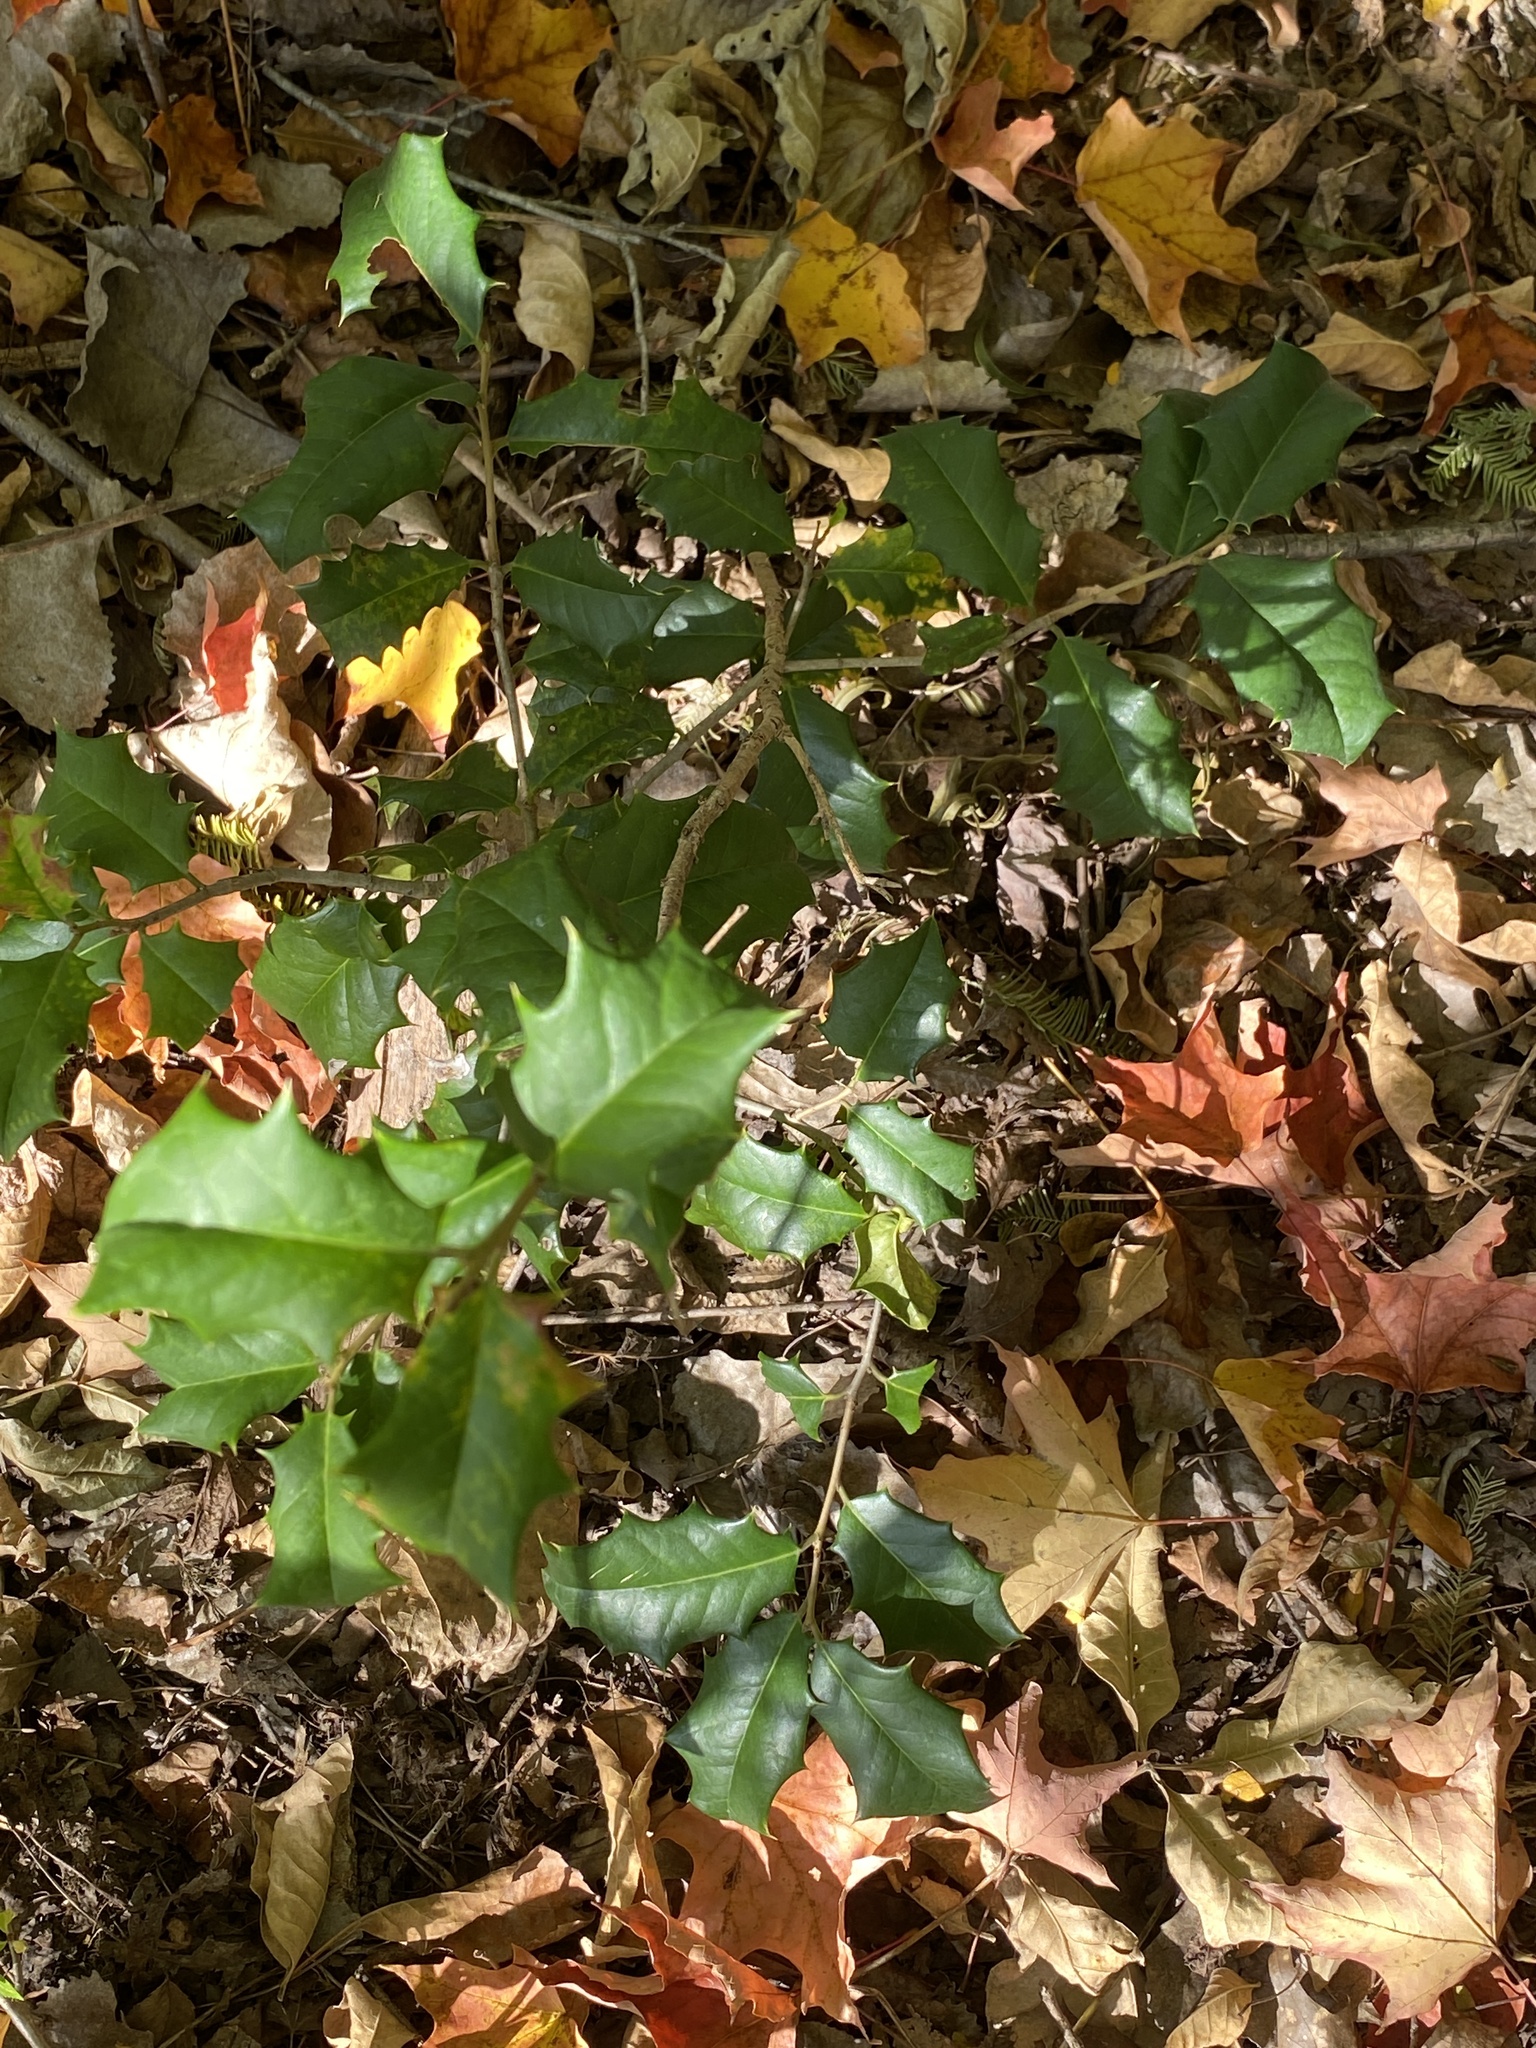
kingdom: Plantae
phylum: Tracheophyta
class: Magnoliopsida
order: Aquifoliales
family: Aquifoliaceae
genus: Ilex
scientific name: Ilex opaca
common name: American holly
